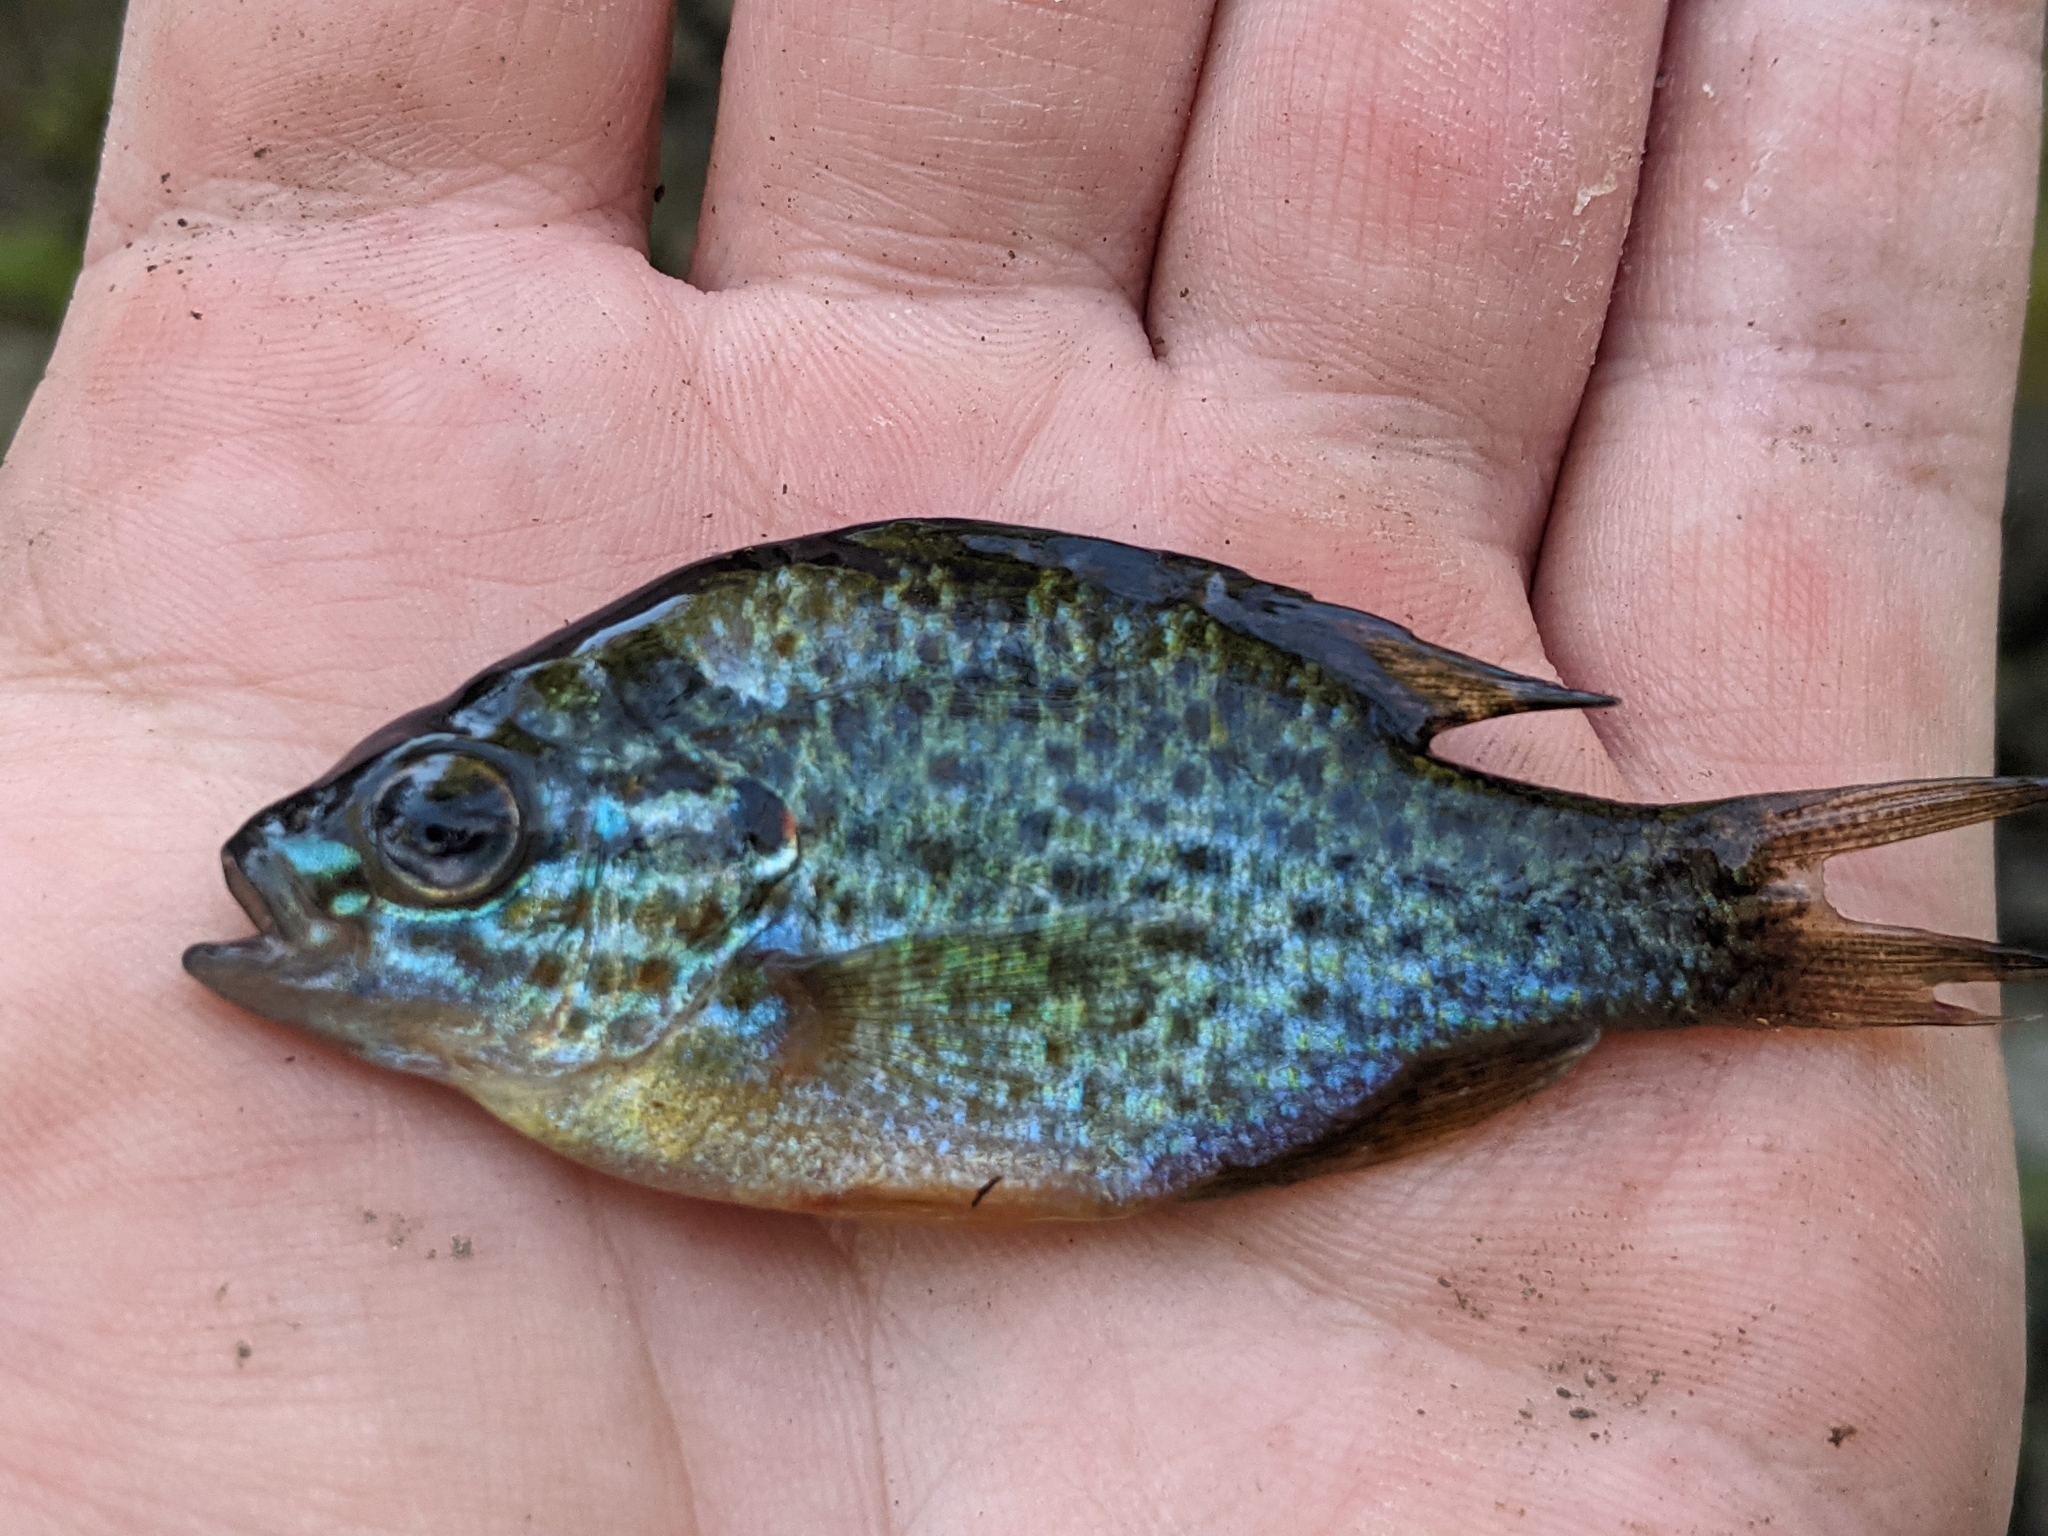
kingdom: Animalia
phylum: Chordata
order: Perciformes
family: Centrarchidae
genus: Lepomis
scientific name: Lepomis gibbosus
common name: Pumpkinseed
